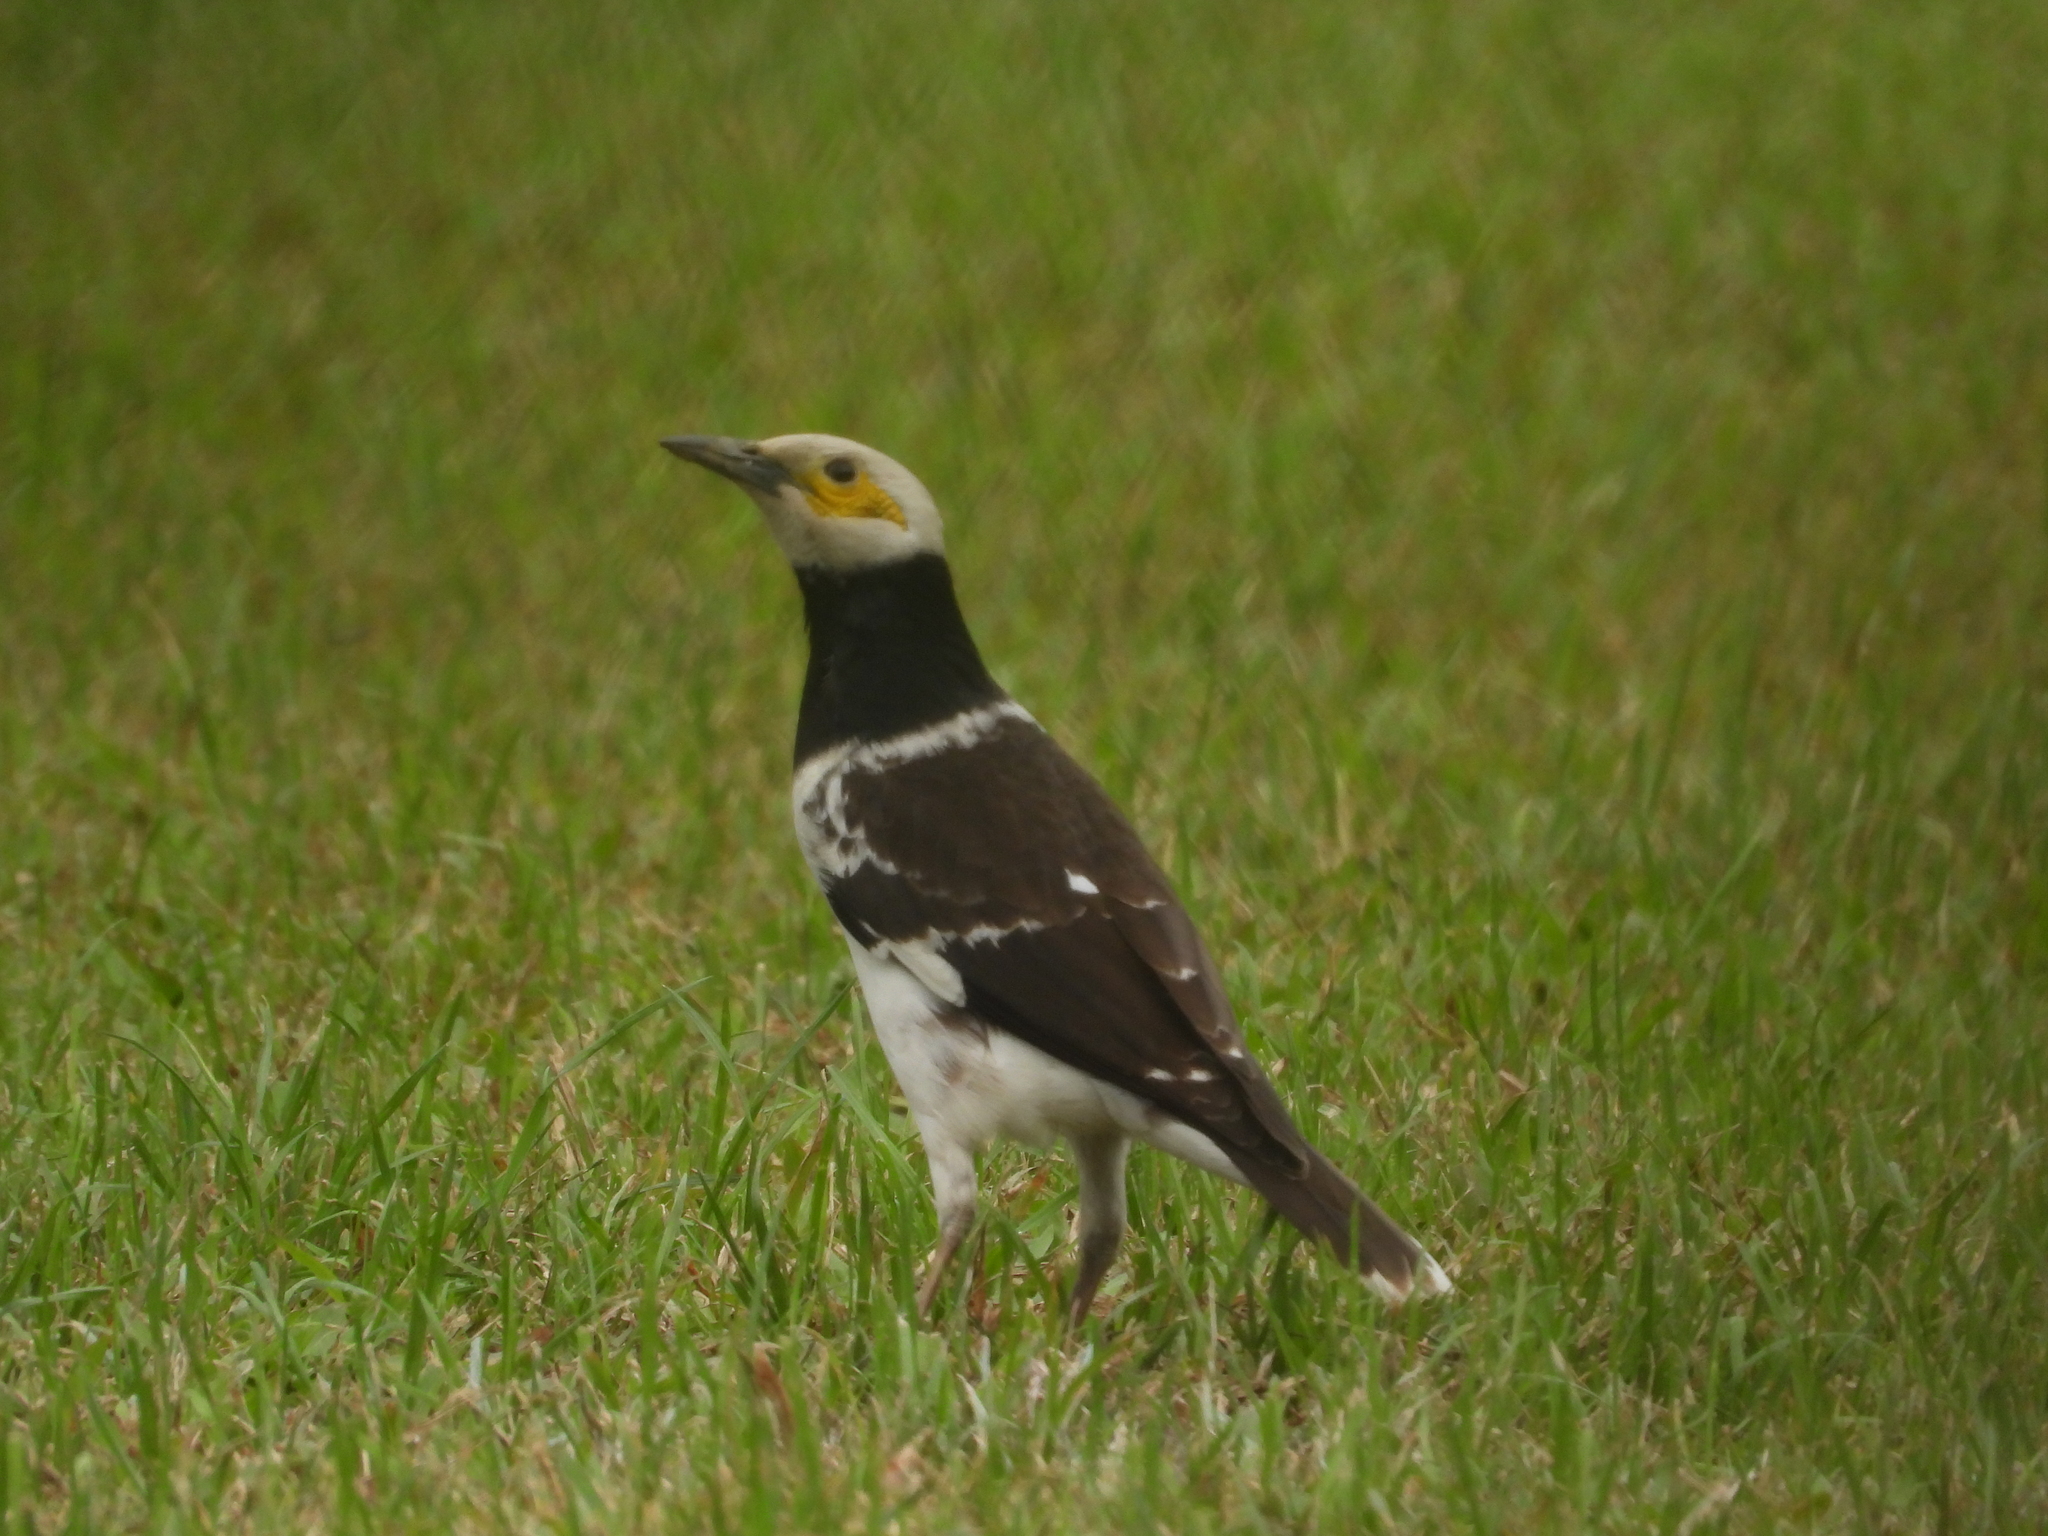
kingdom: Animalia
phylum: Chordata
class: Aves
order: Passeriformes
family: Sturnidae
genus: Gracupica
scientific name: Gracupica nigricollis
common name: Black-collared starling
